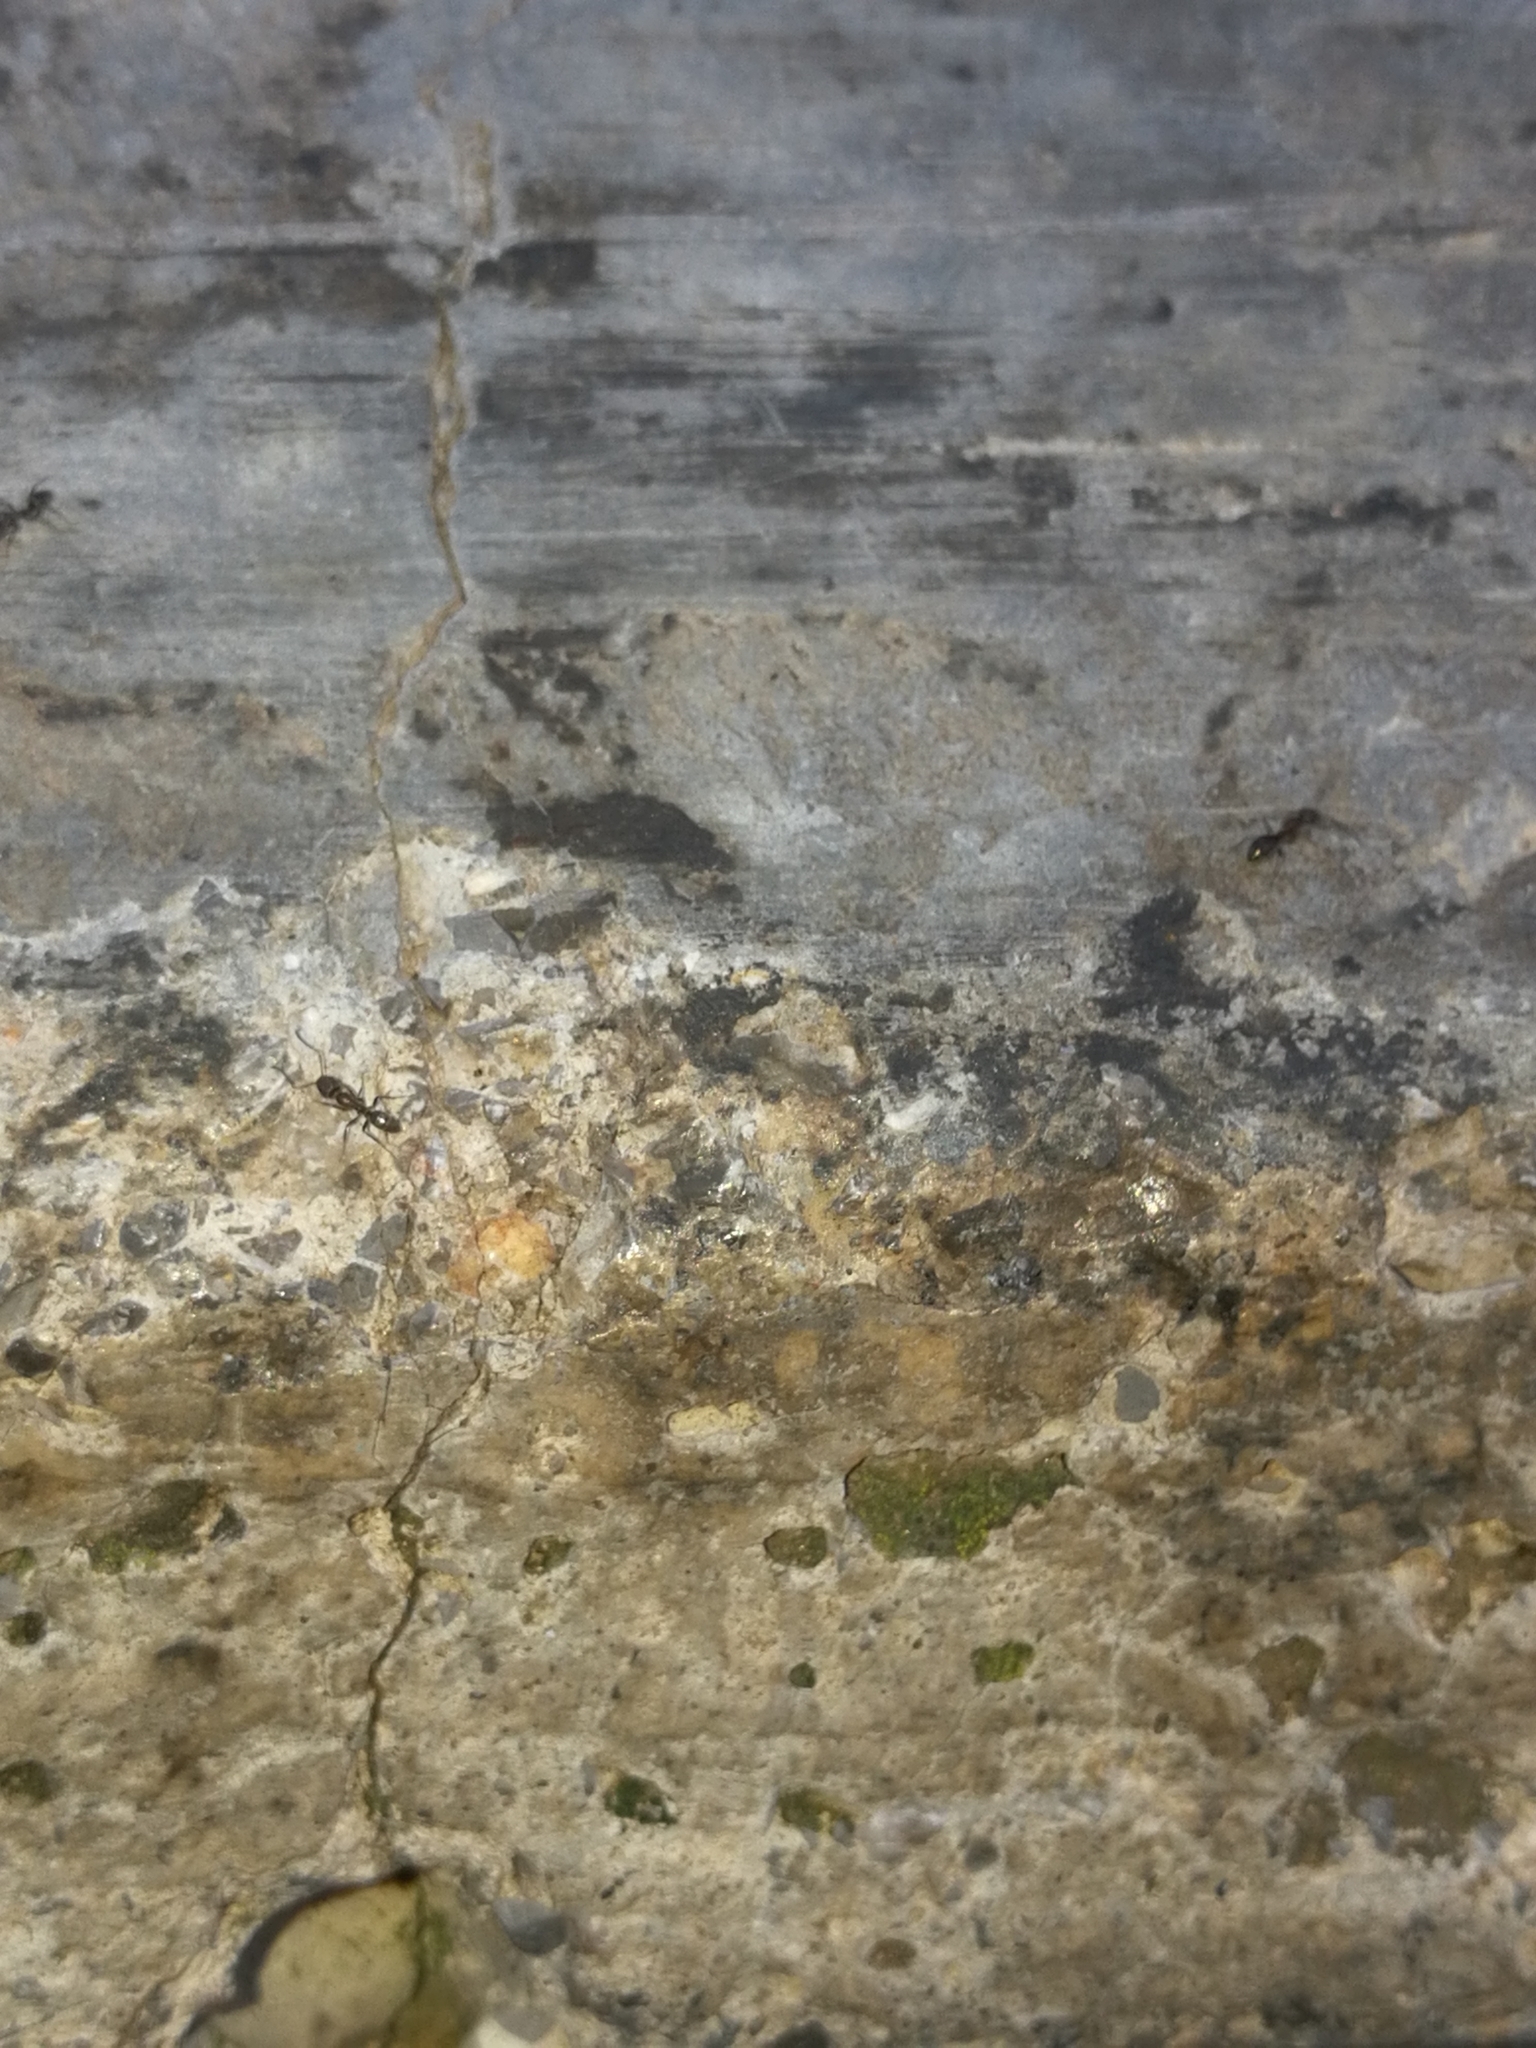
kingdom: Animalia
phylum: Arthropoda
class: Insecta
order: Hymenoptera
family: Formicidae
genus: Linepithema
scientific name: Linepithema humile
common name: Argentine ant
